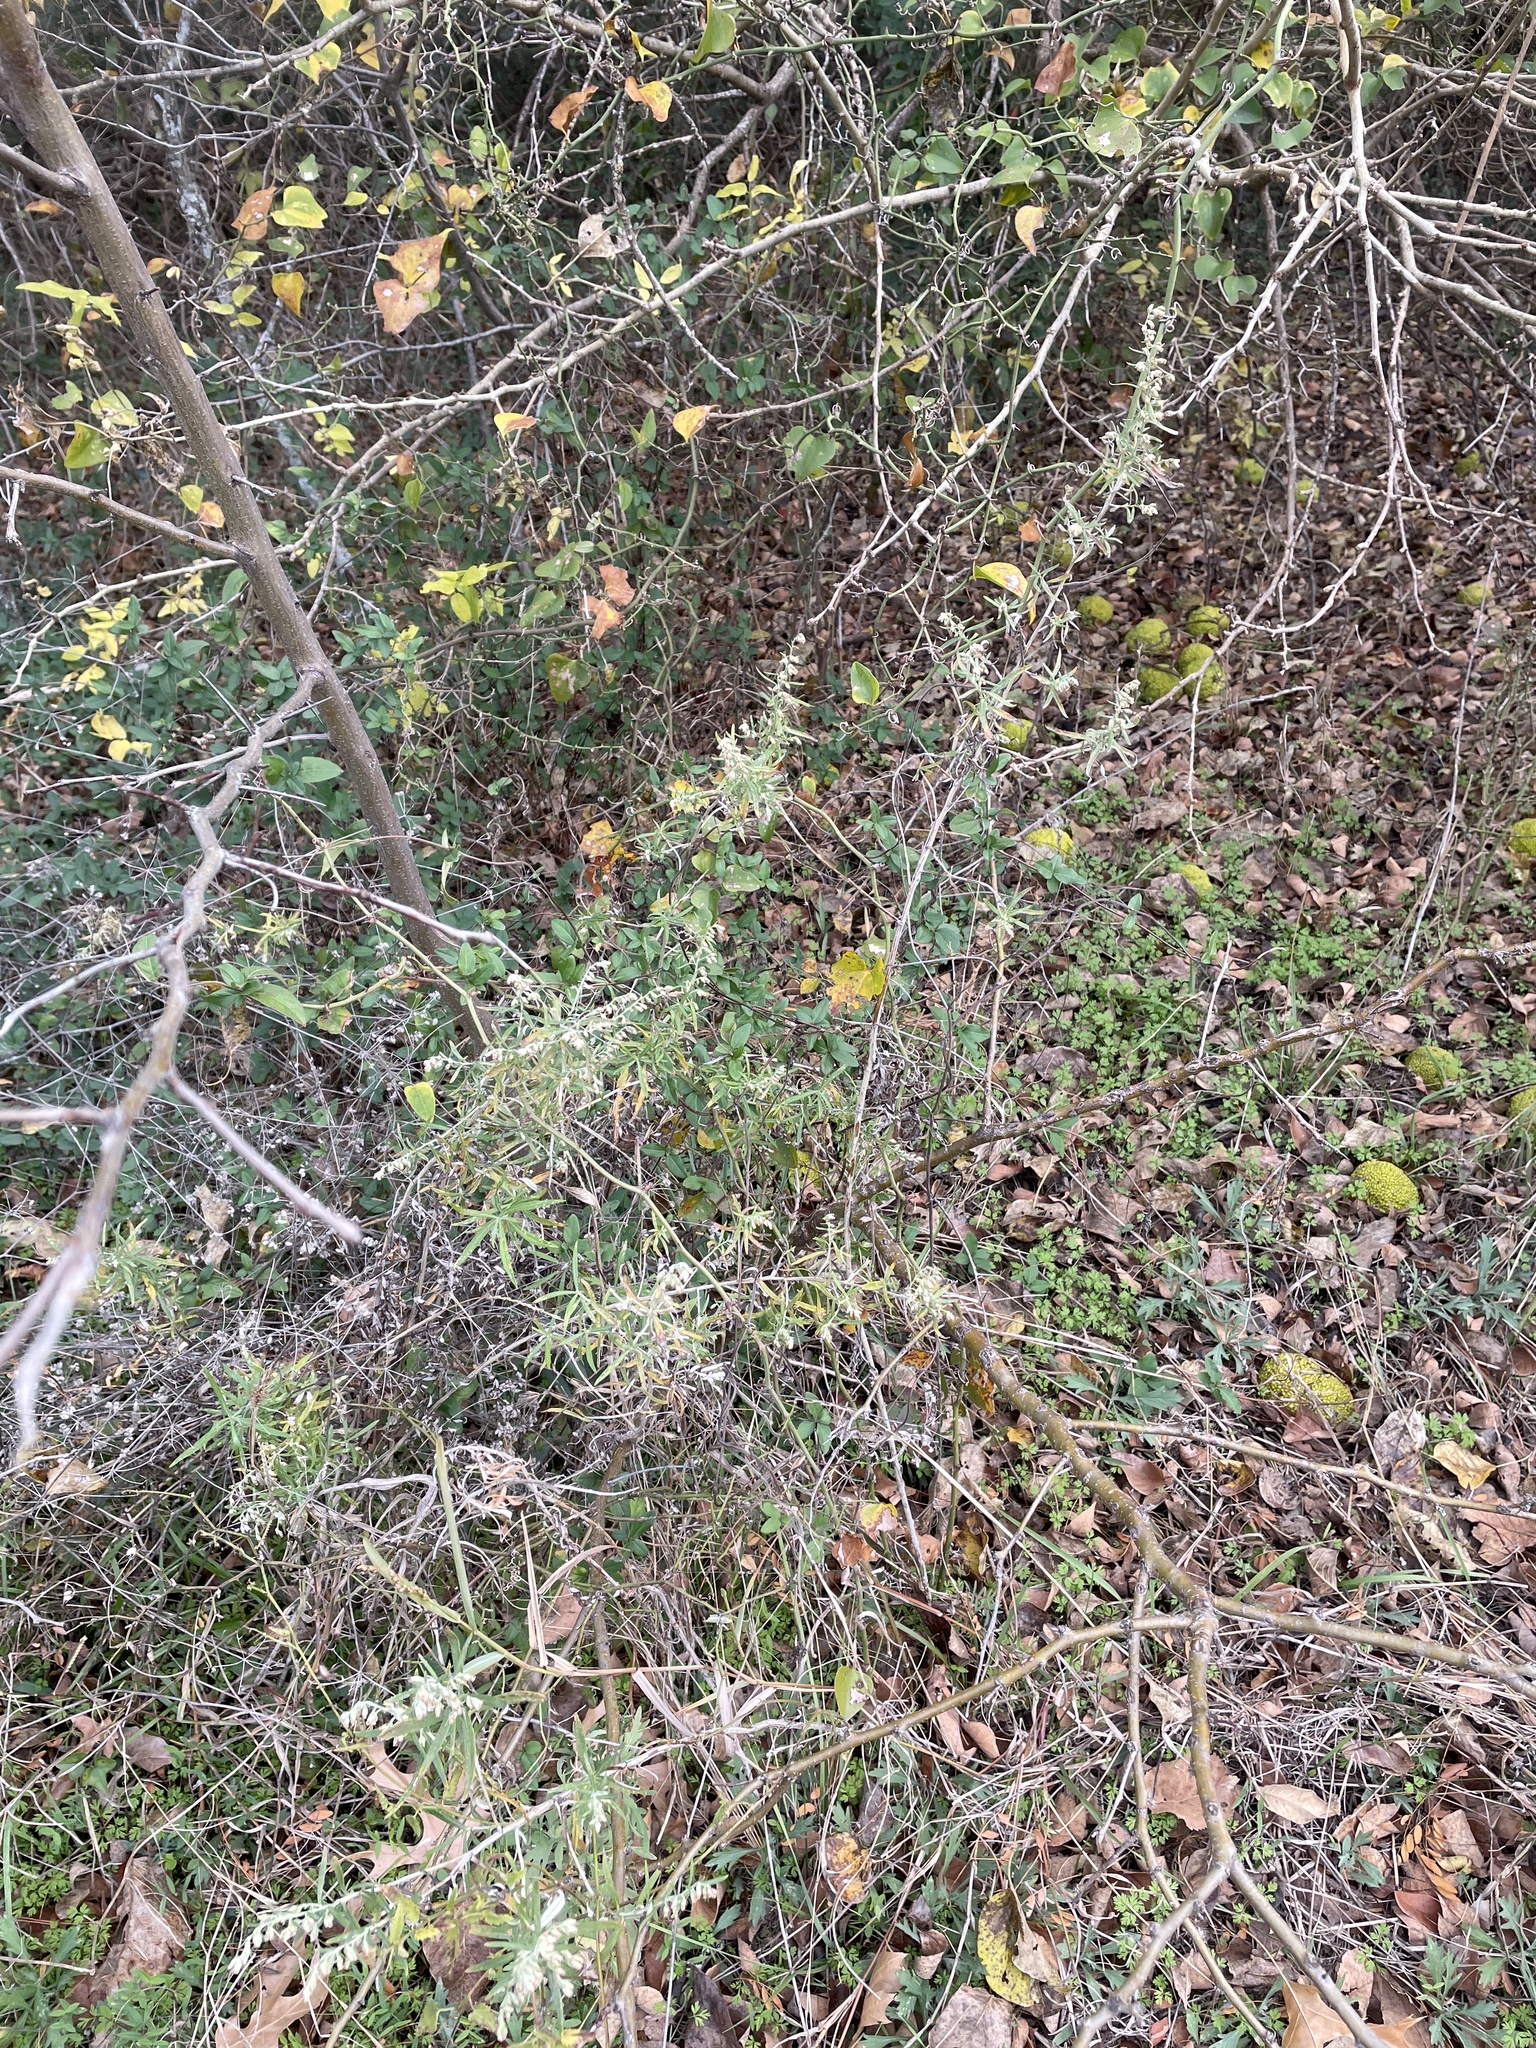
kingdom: Plantae
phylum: Tracheophyta
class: Magnoliopsida
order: Asterales
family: Asteraceae
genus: Artemisia
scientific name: Artemisia ludoviciana
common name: Western mugwort
